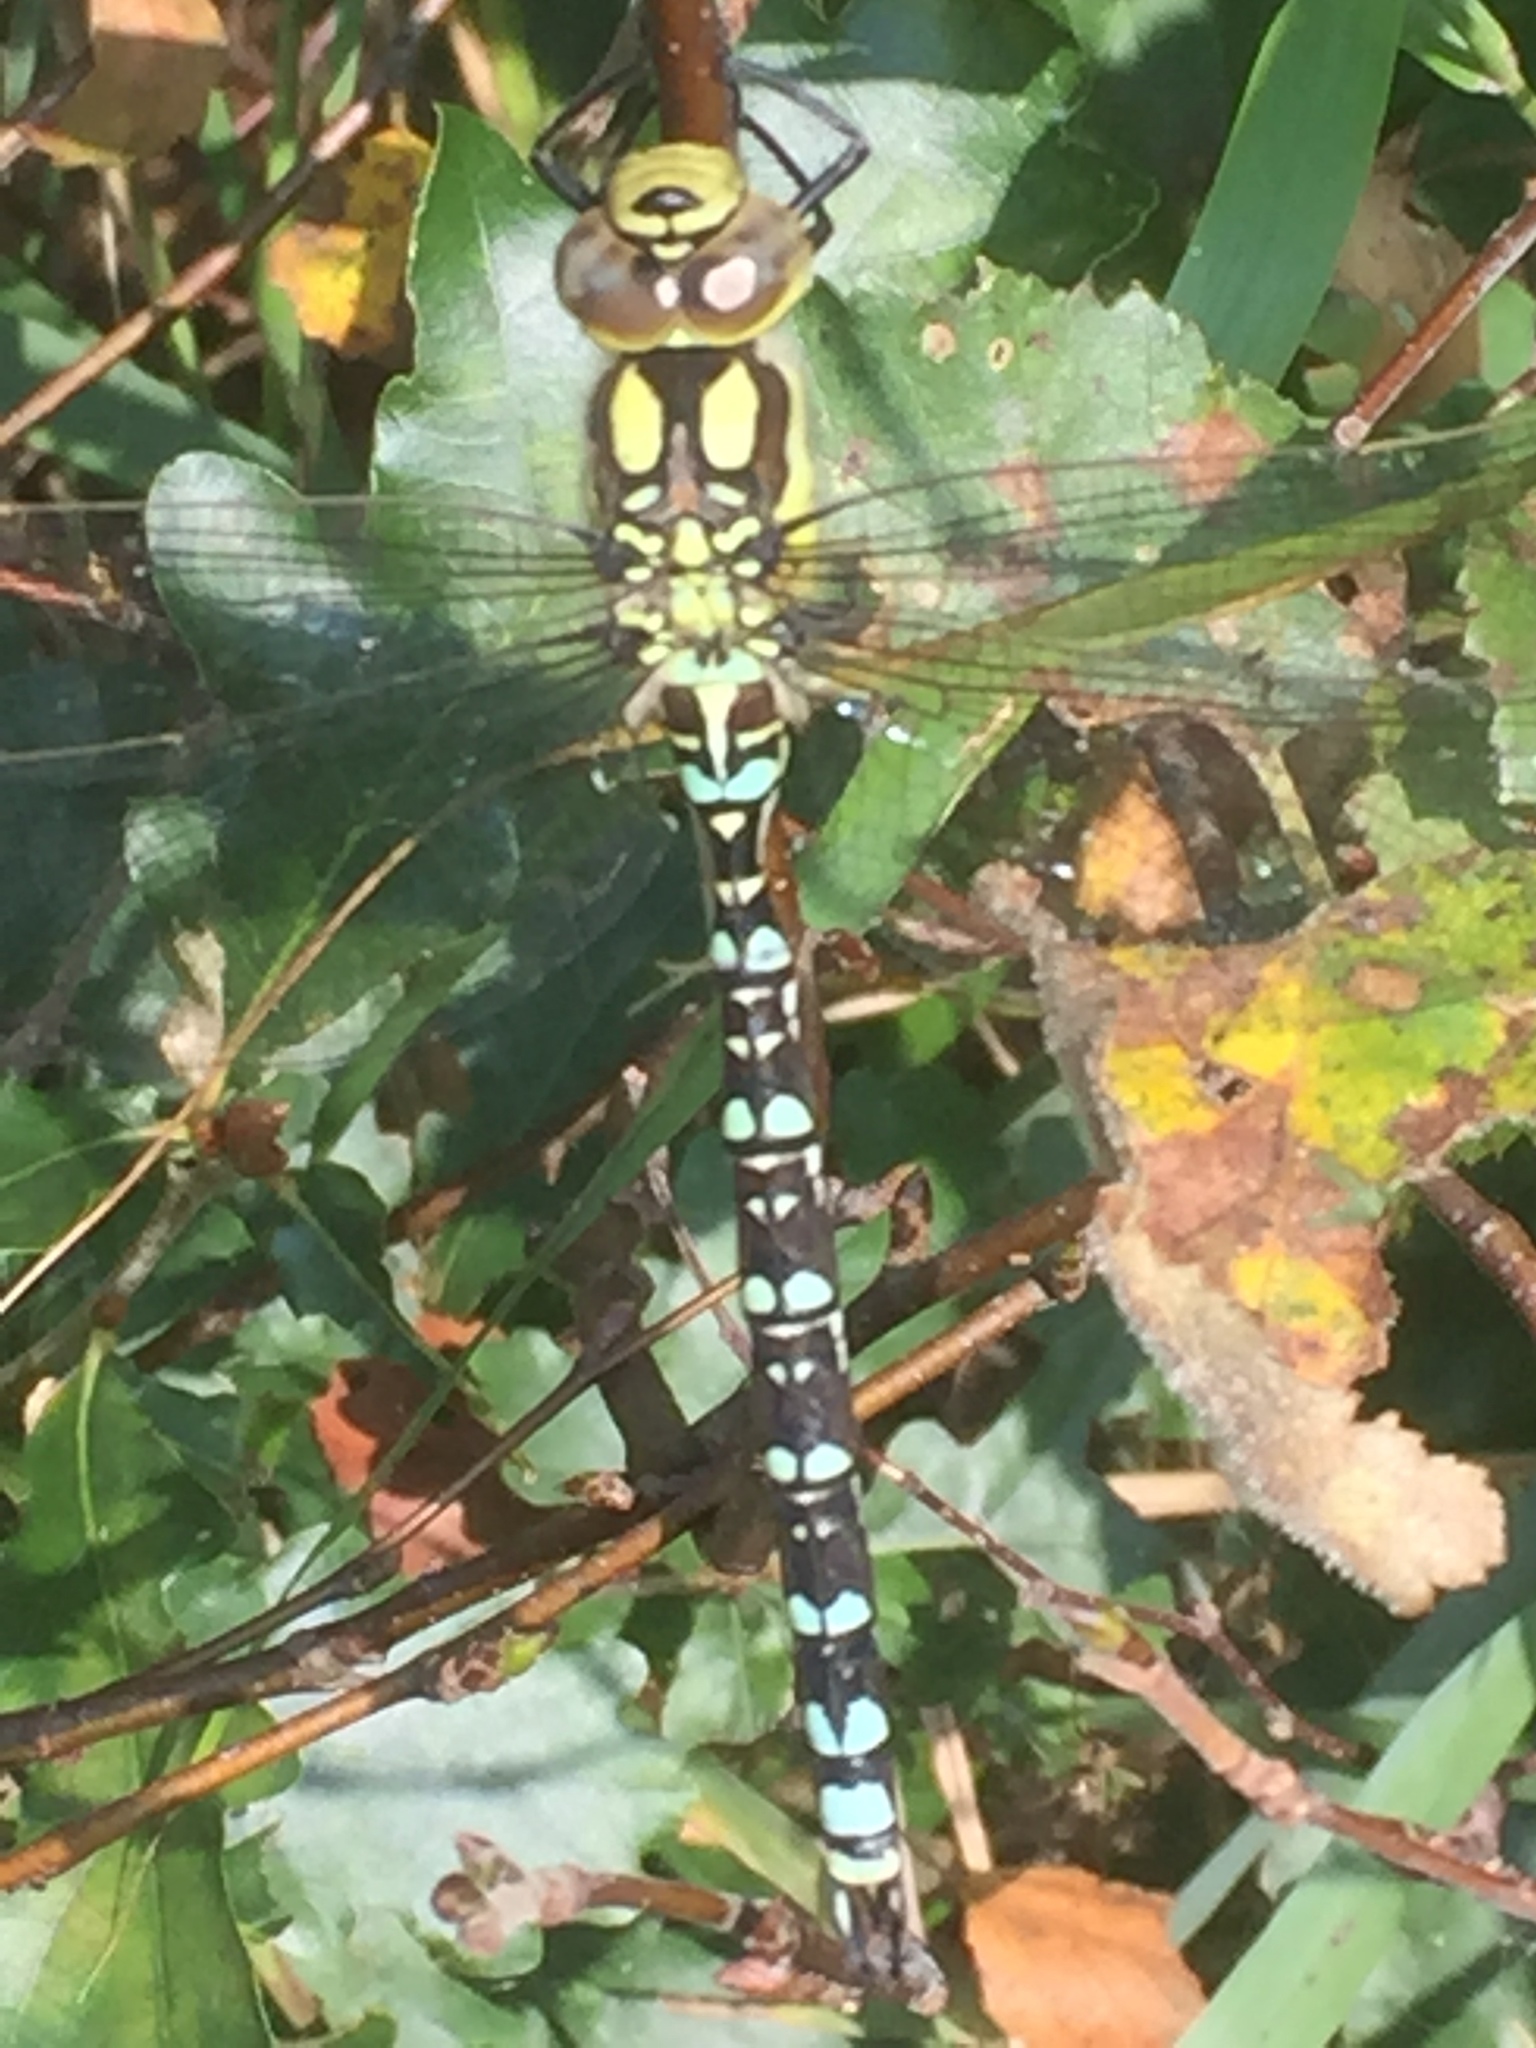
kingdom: Animalia
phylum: Arthropoda
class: Insecta
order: Odonata
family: Aeshnidae
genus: Aeshna
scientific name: Aeshna cyanea
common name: Southern hawker
